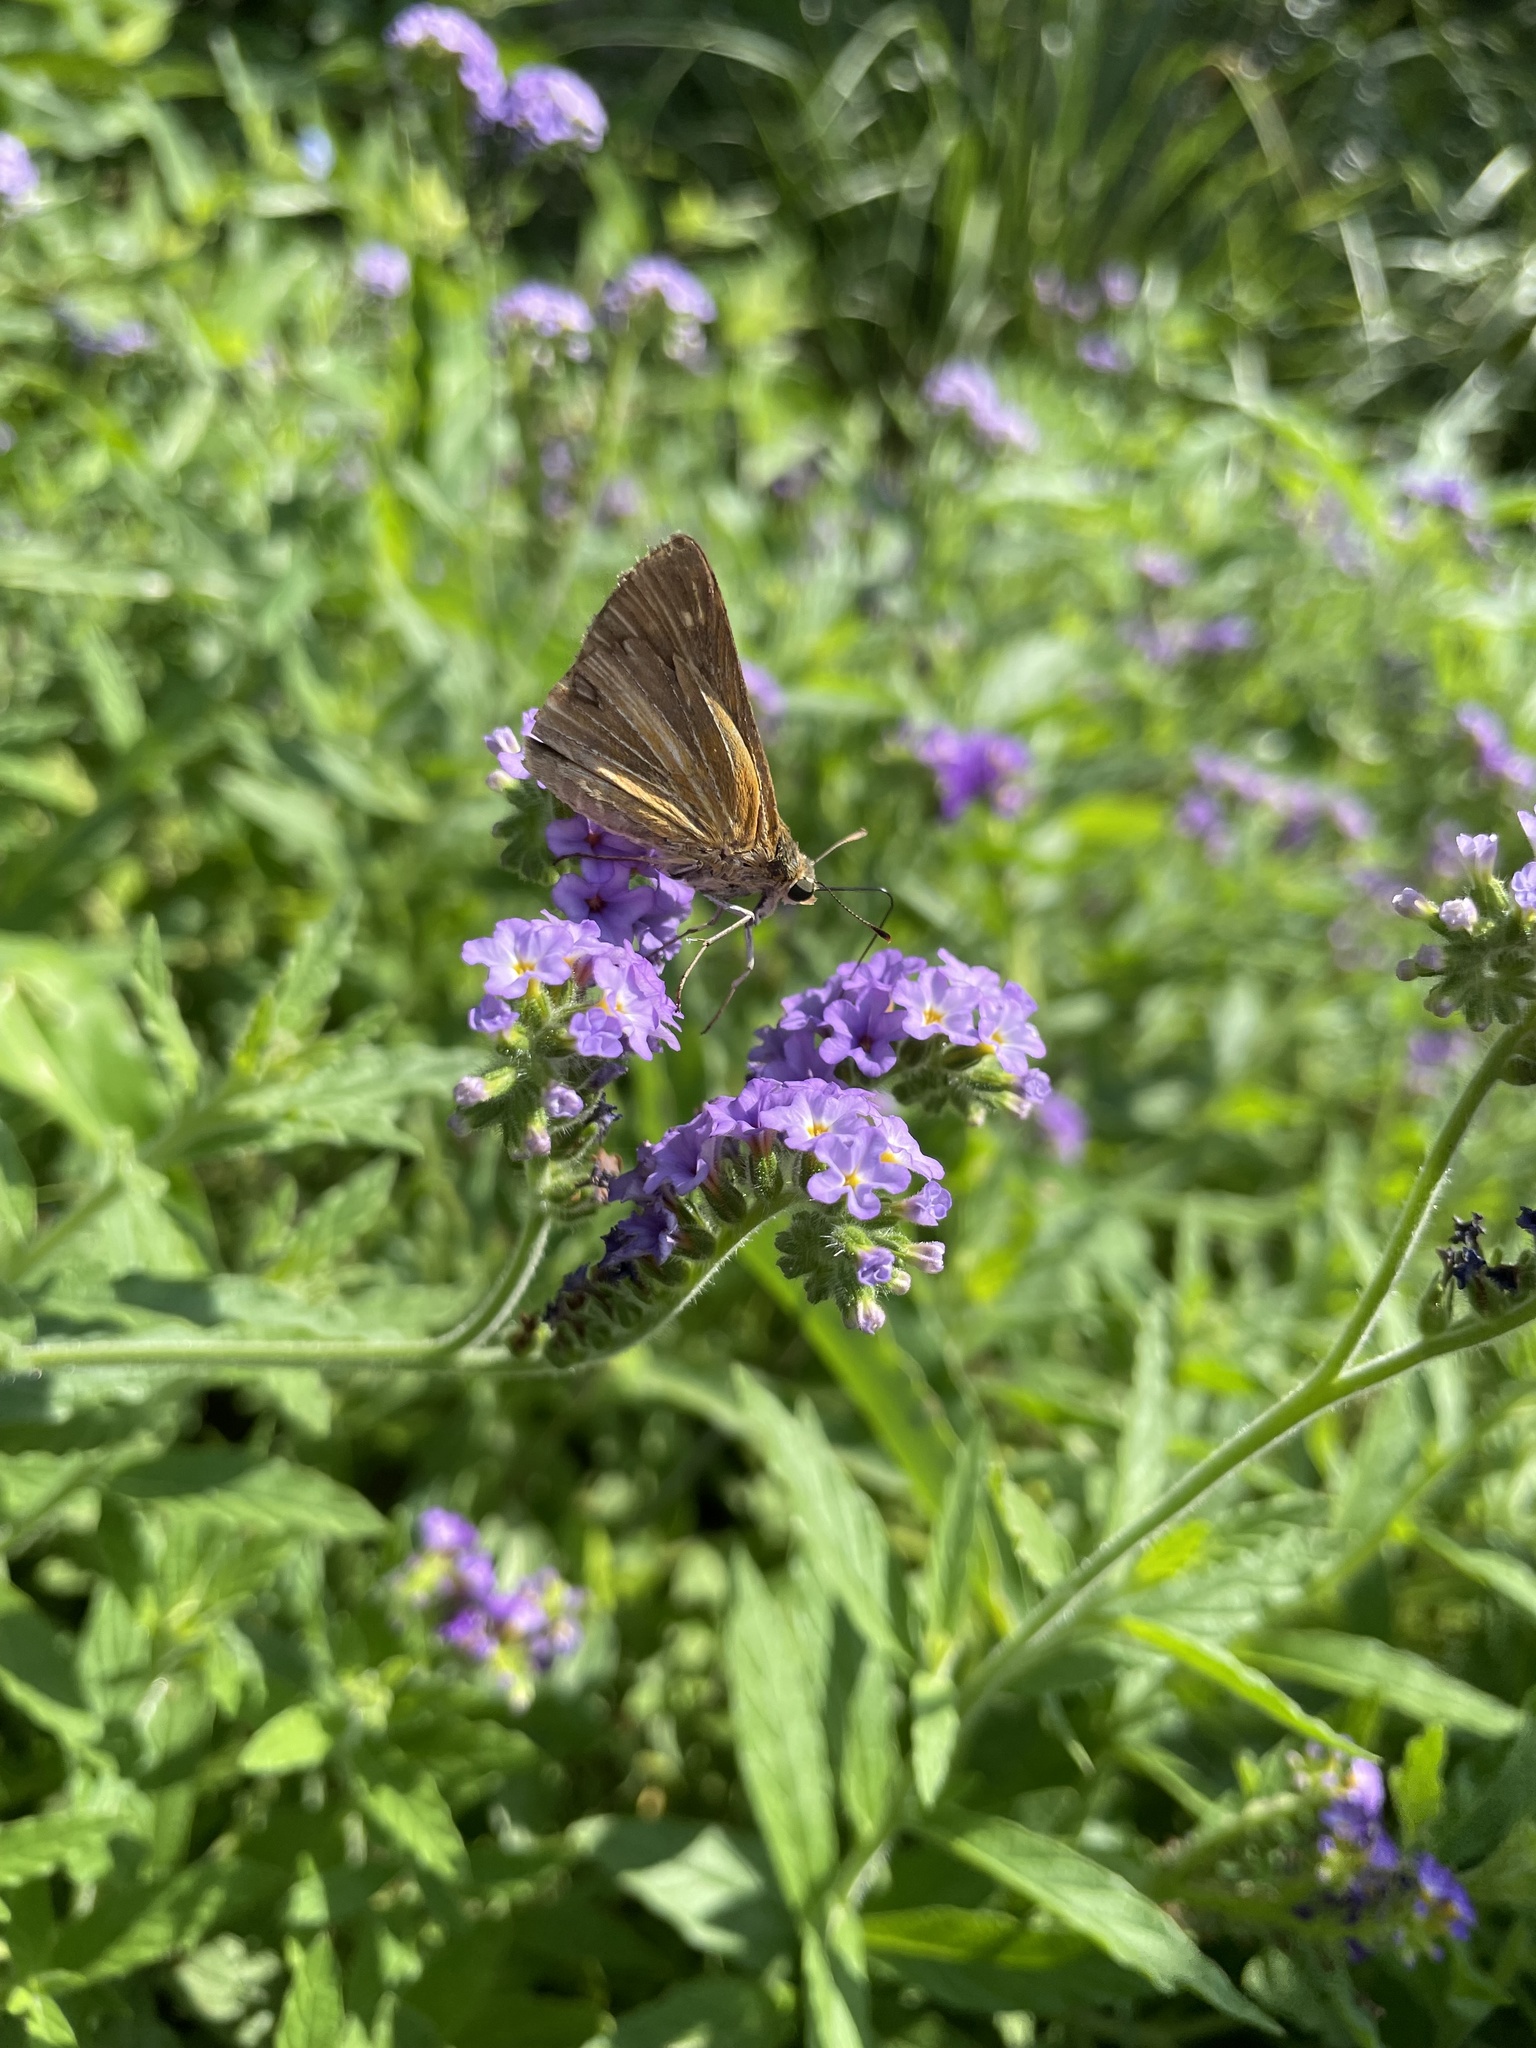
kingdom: Animalia
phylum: Arthropoda
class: Insecta
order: Lepidoptera
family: Hesperiidae
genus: Euphyes
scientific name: Euphyes dion
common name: Dion skipper
